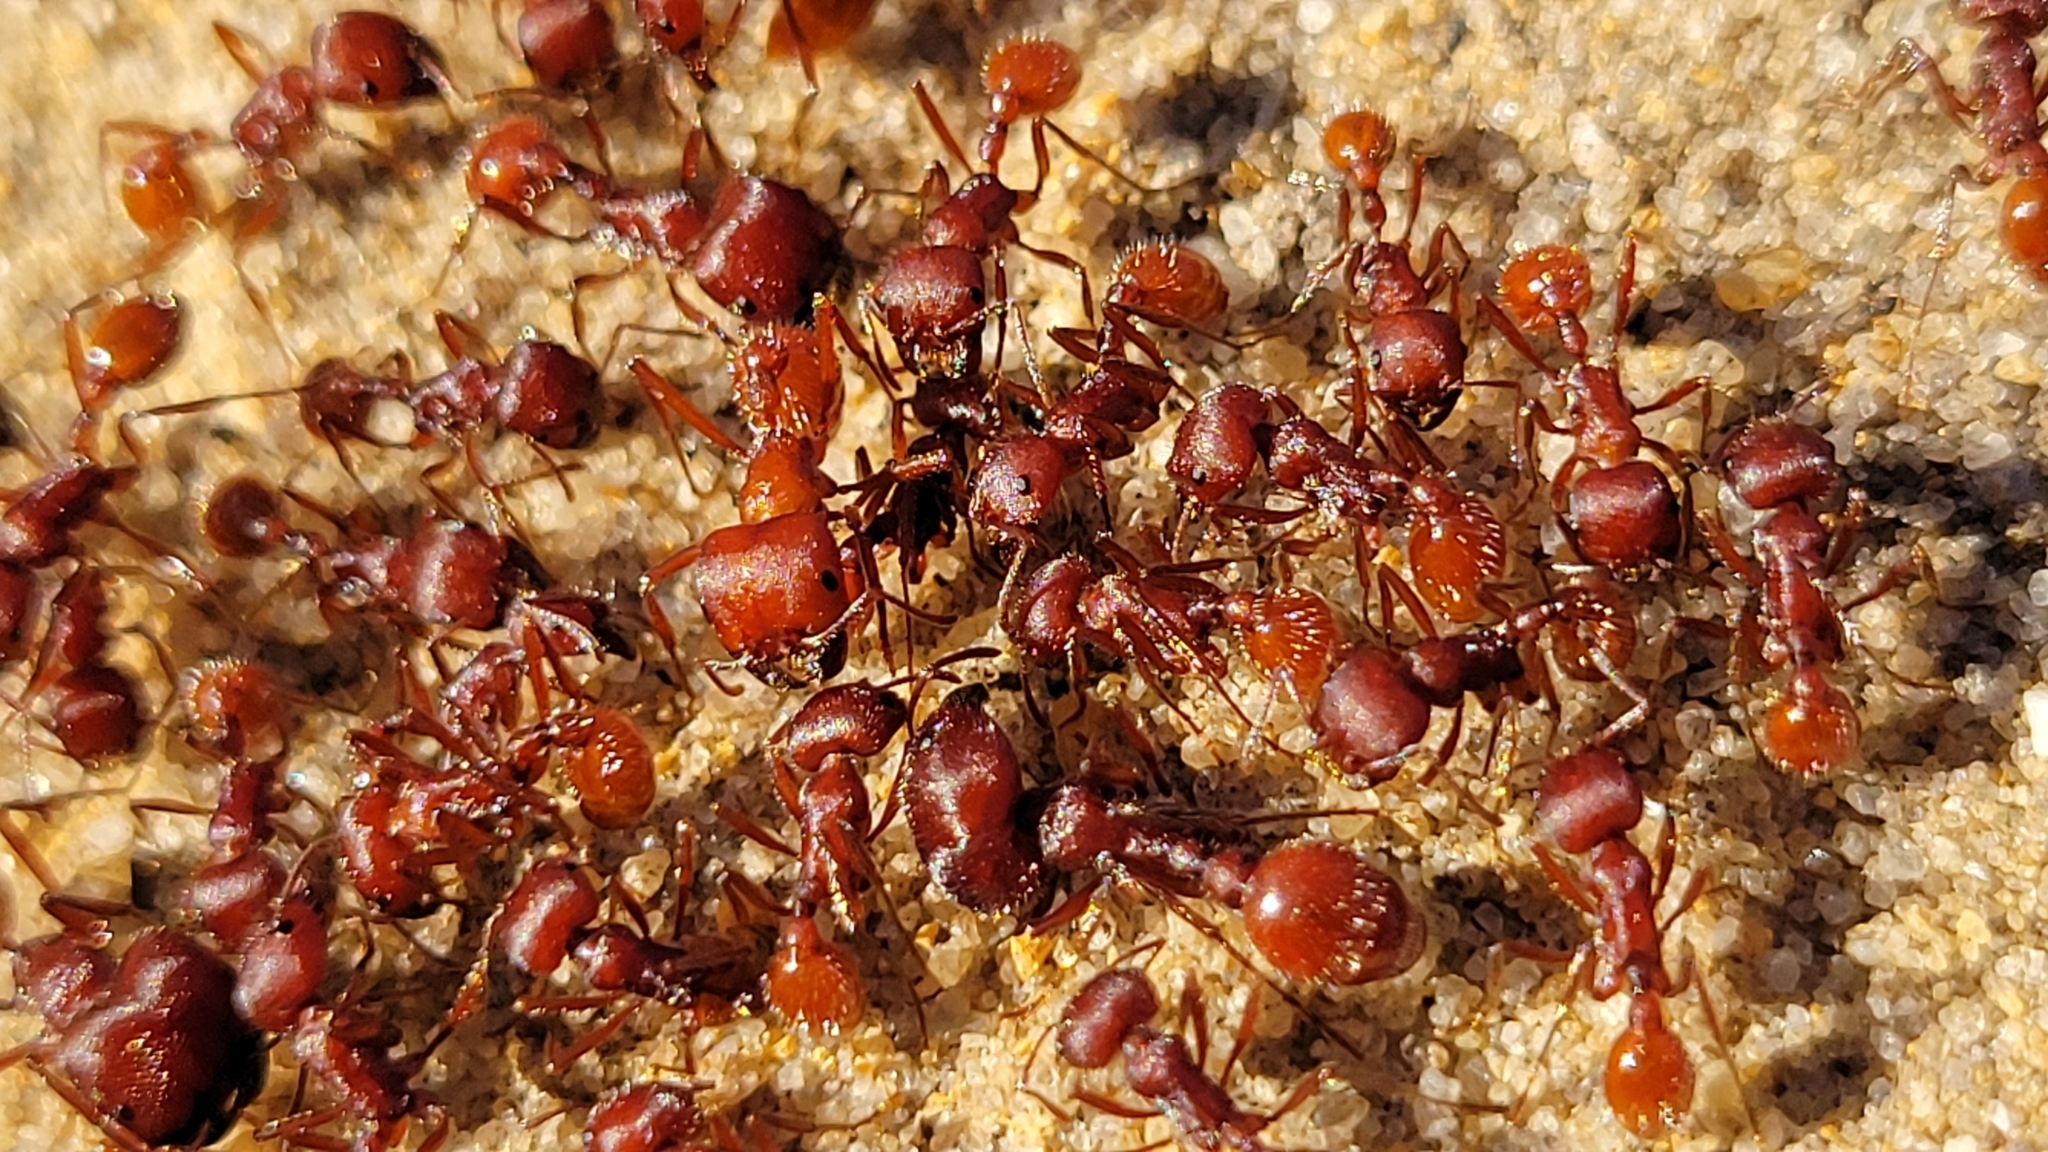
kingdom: Animalia
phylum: Arthropoda
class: Insecta
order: Hymenoptera
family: Formicidae
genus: Pogonomyrmex
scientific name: Pogonomyrmex badius
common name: Florida harvester ant
